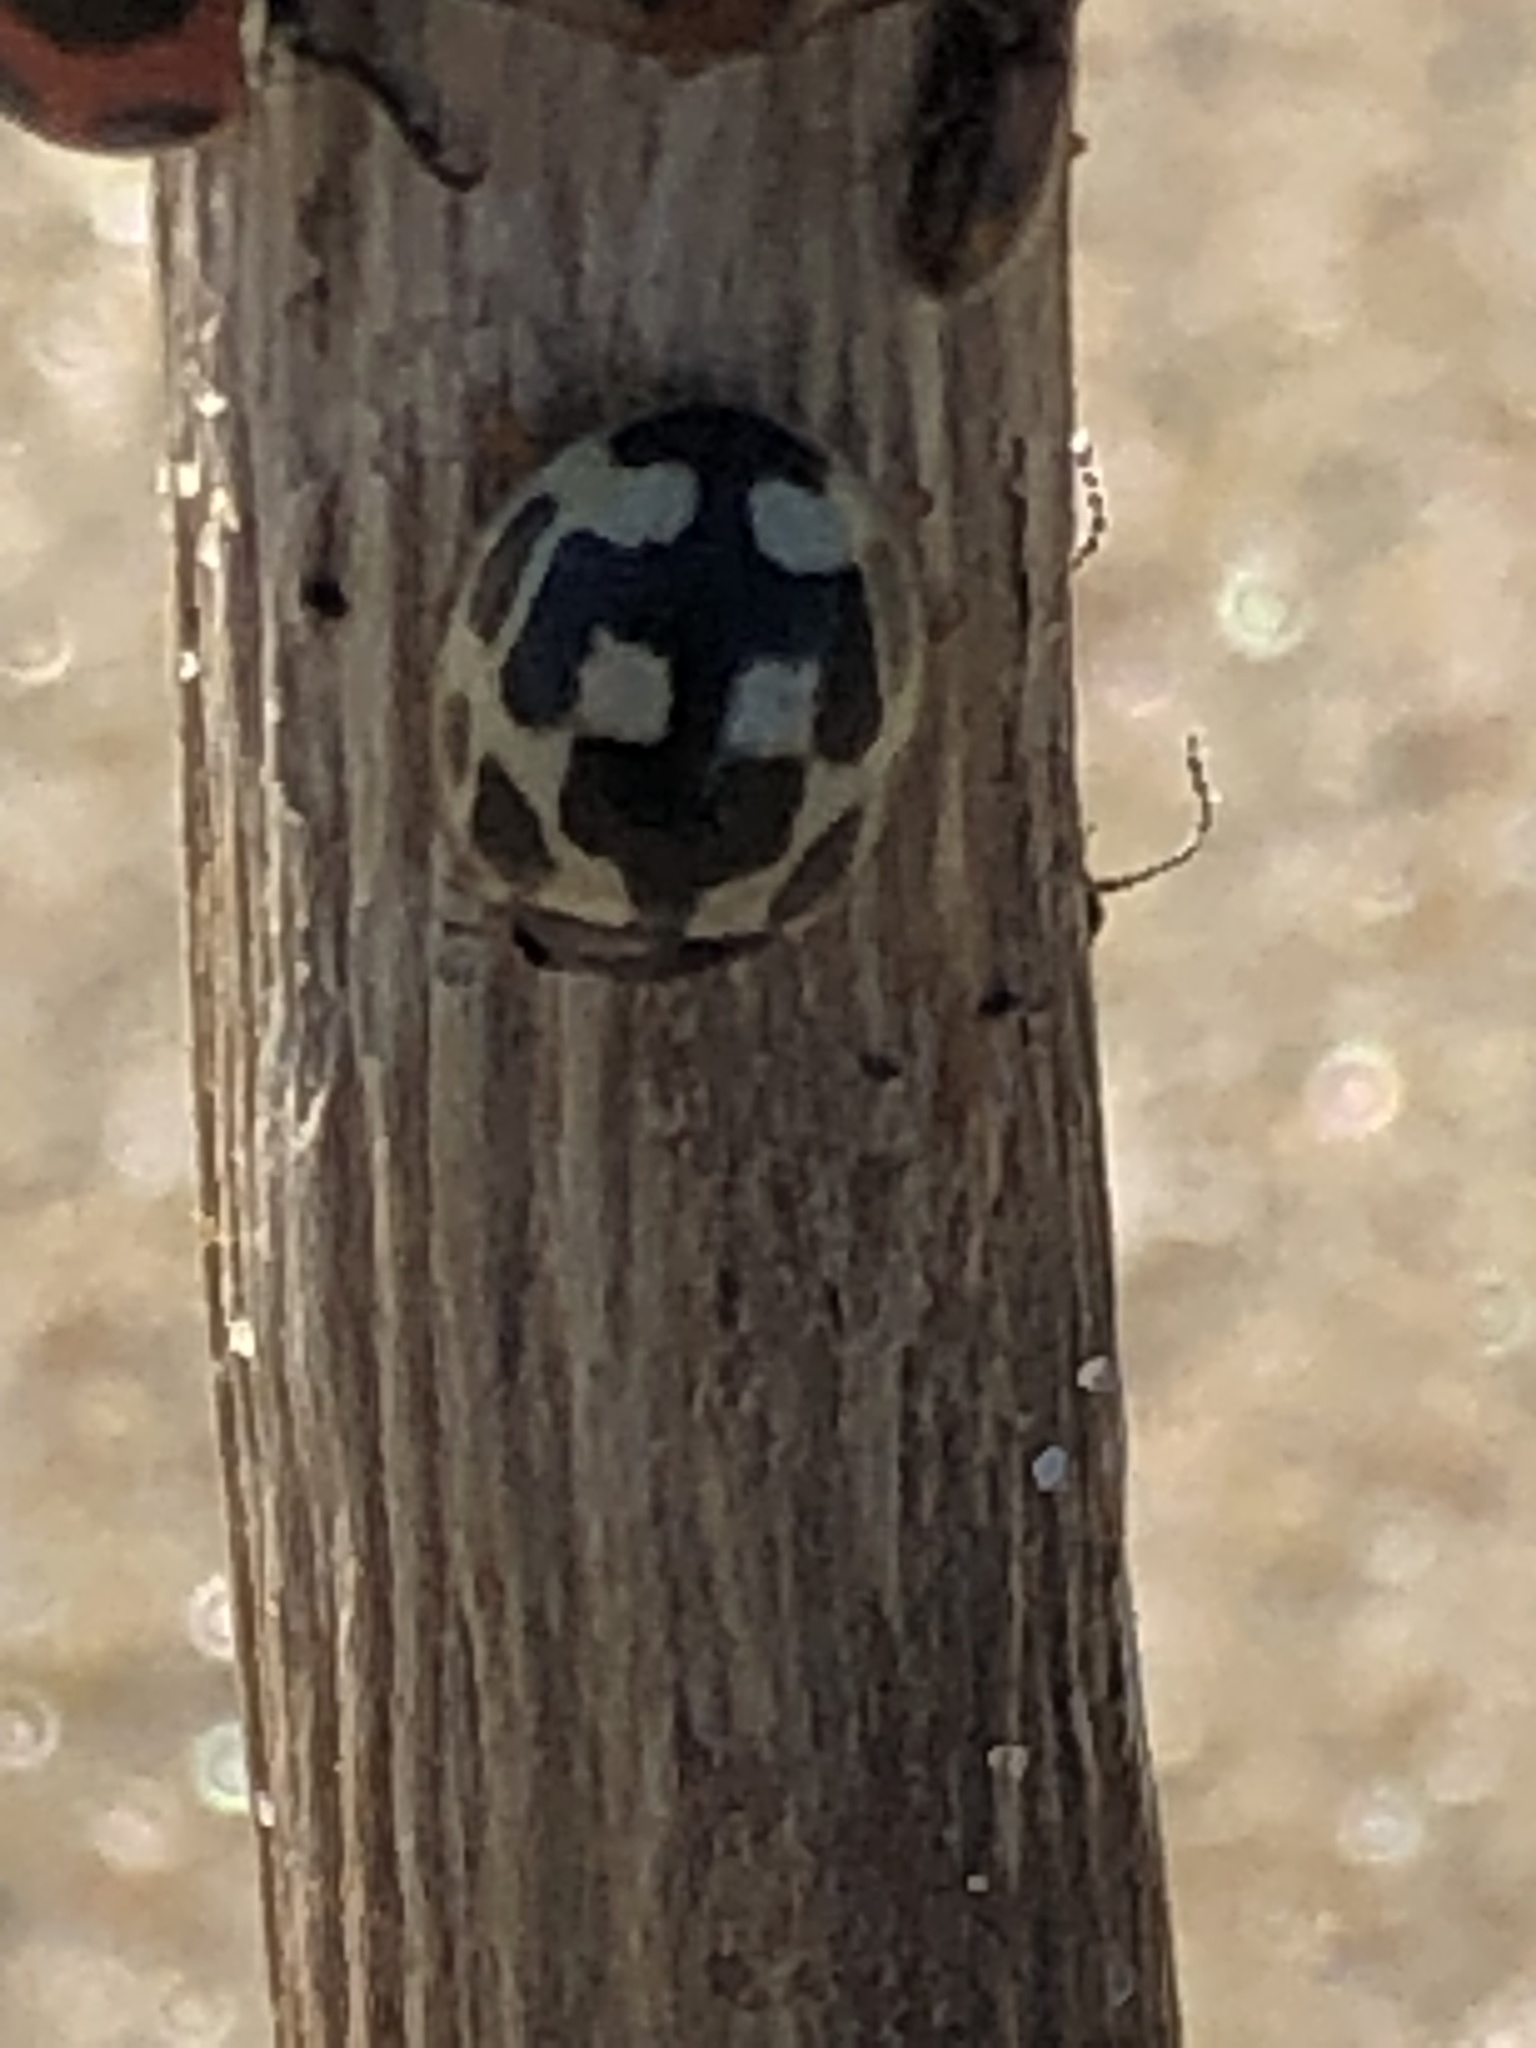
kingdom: Animalia
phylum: Arthropoda
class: Insecta
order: Coleoptera
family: Coccinellidae
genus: Propylaea
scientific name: Propylaea quatuordecimpunctata
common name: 14-spotted ladybird beetle
